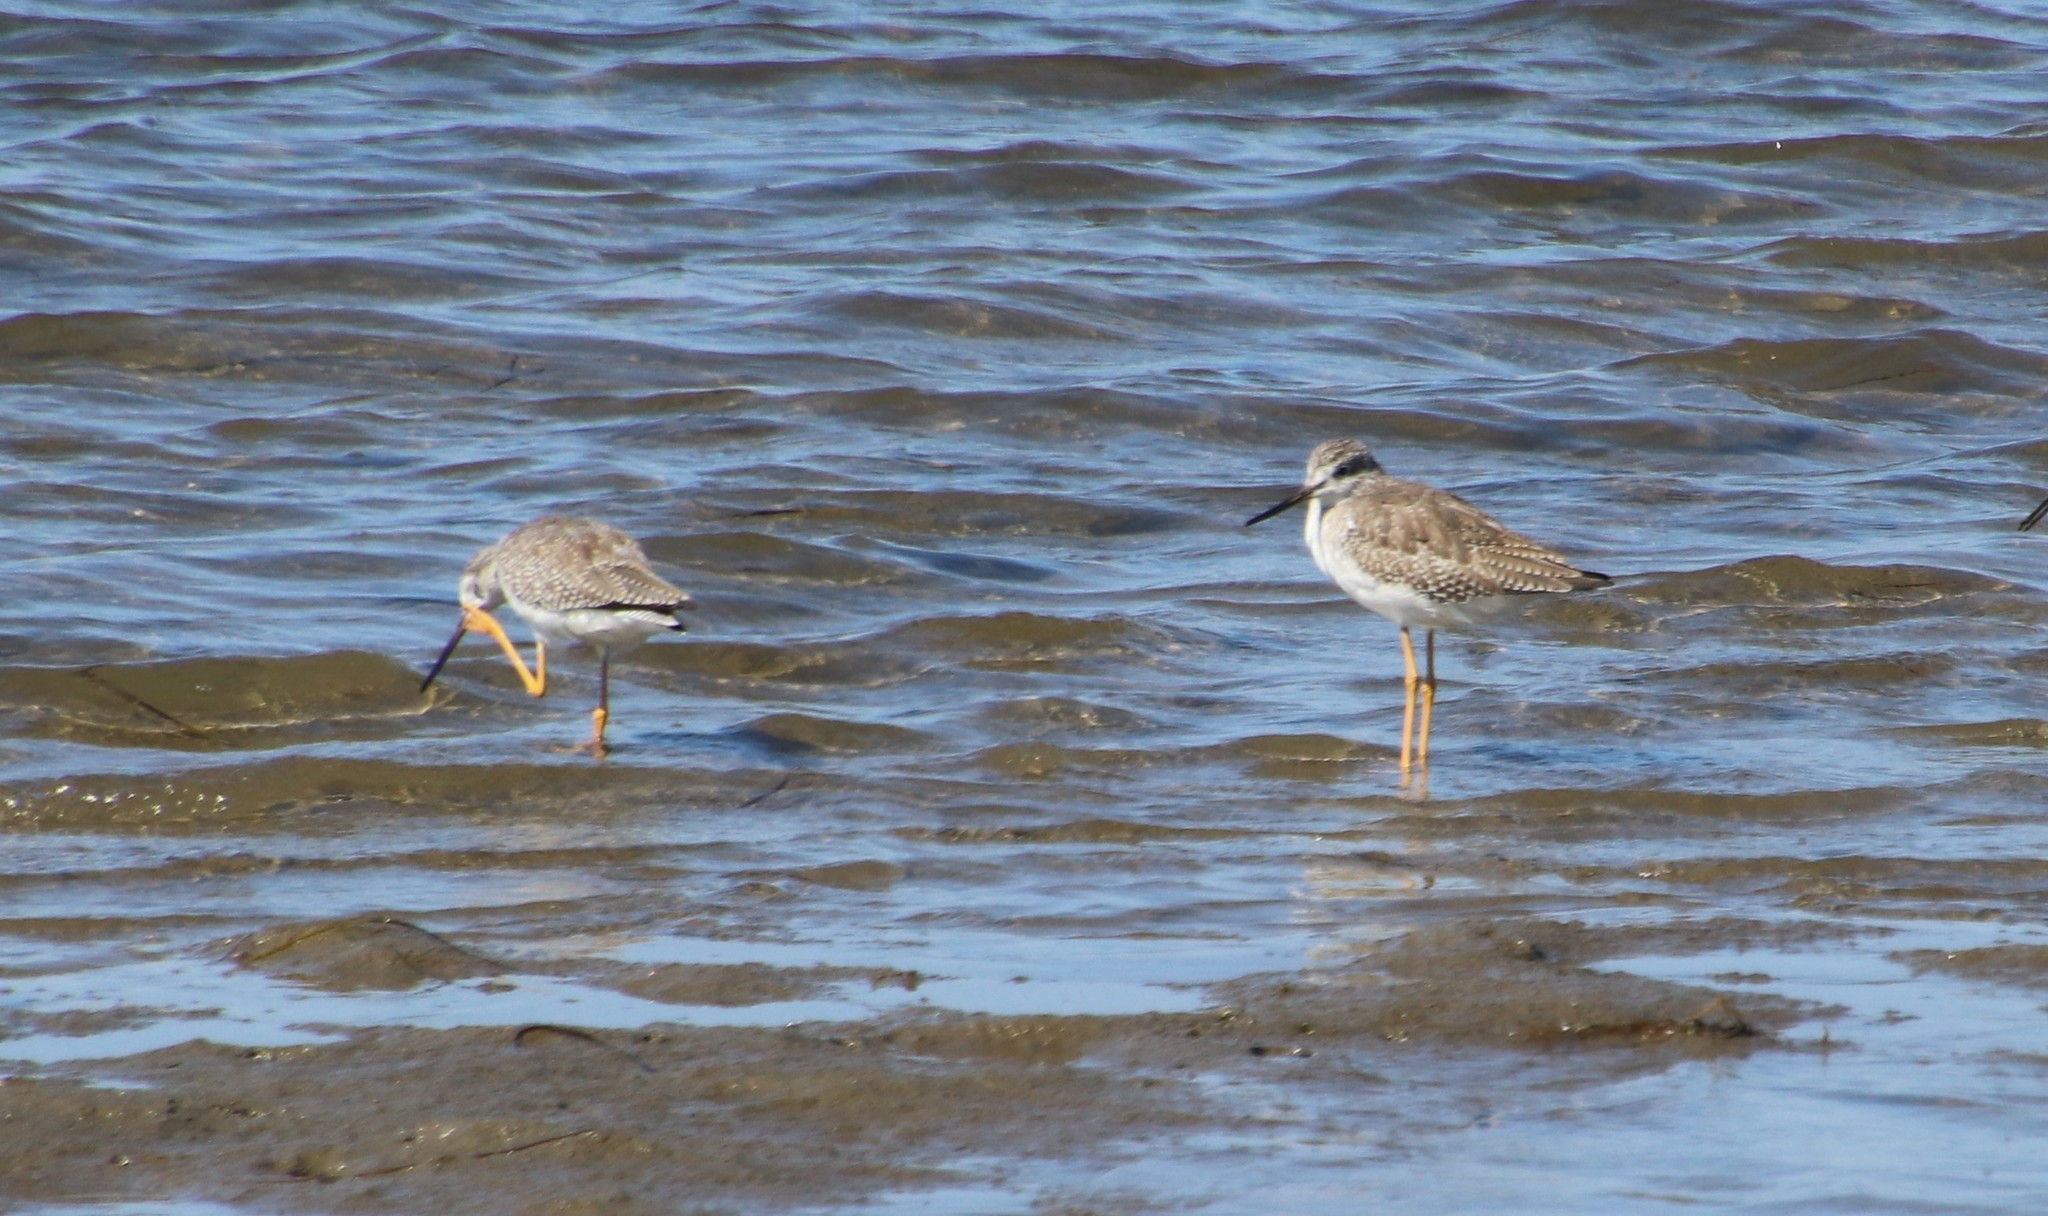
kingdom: Animalia
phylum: Chordata
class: Aves
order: Charadriiformes
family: Scolopacidae
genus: Tringa
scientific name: Tringa melanoleuca
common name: Greater yellowlegs
